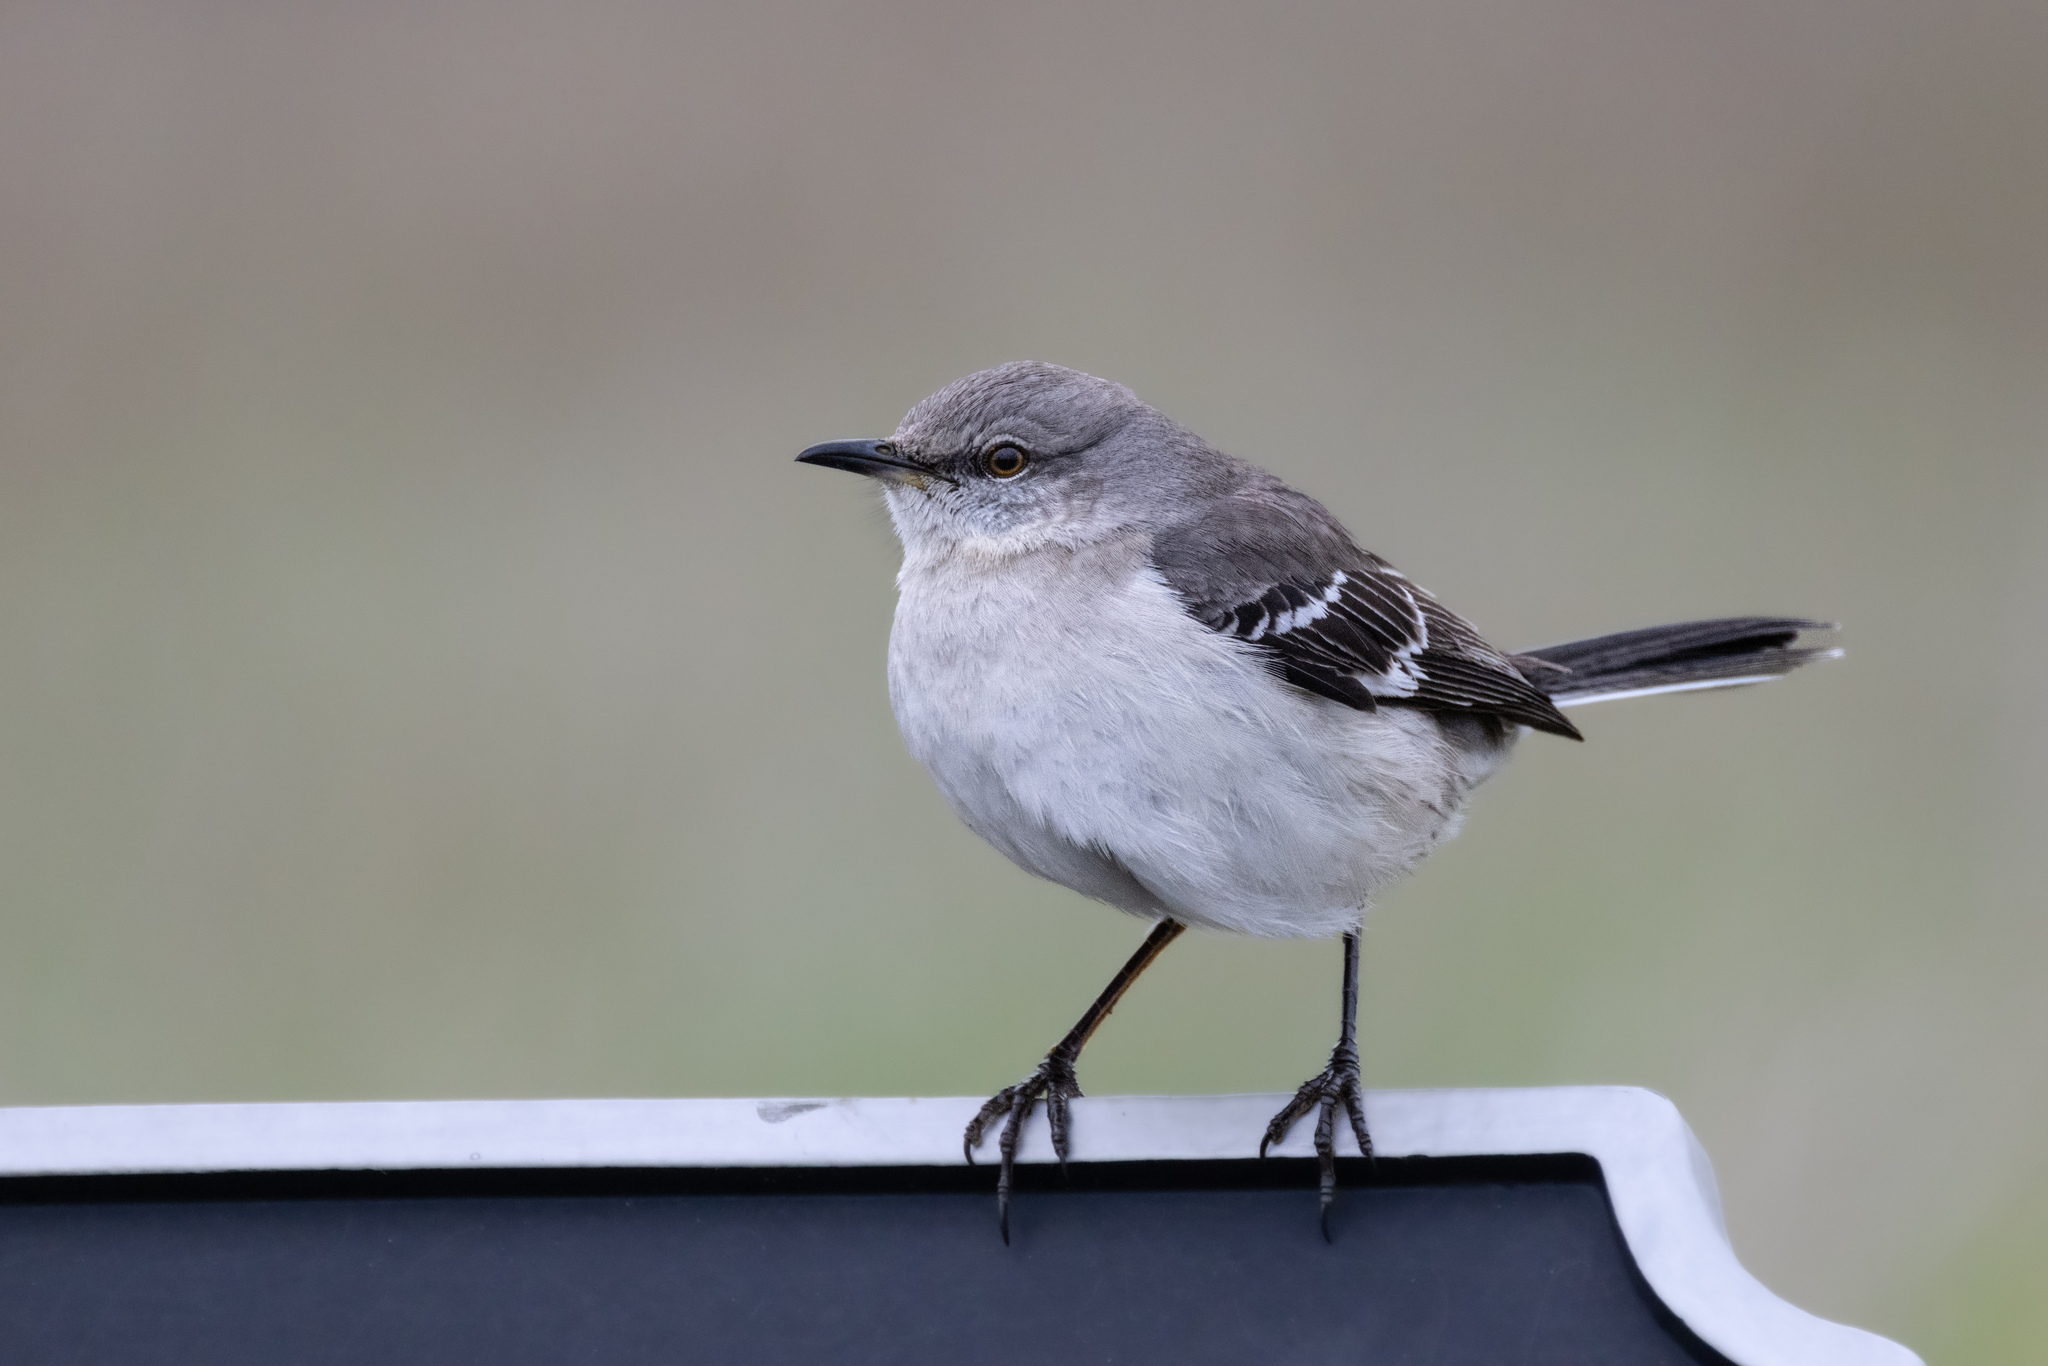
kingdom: Animalia
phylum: Chordata
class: Aves
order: Passeriformes
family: Mimidae
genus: Mimus
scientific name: Mimus polyglottos
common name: Northern mockingbird
